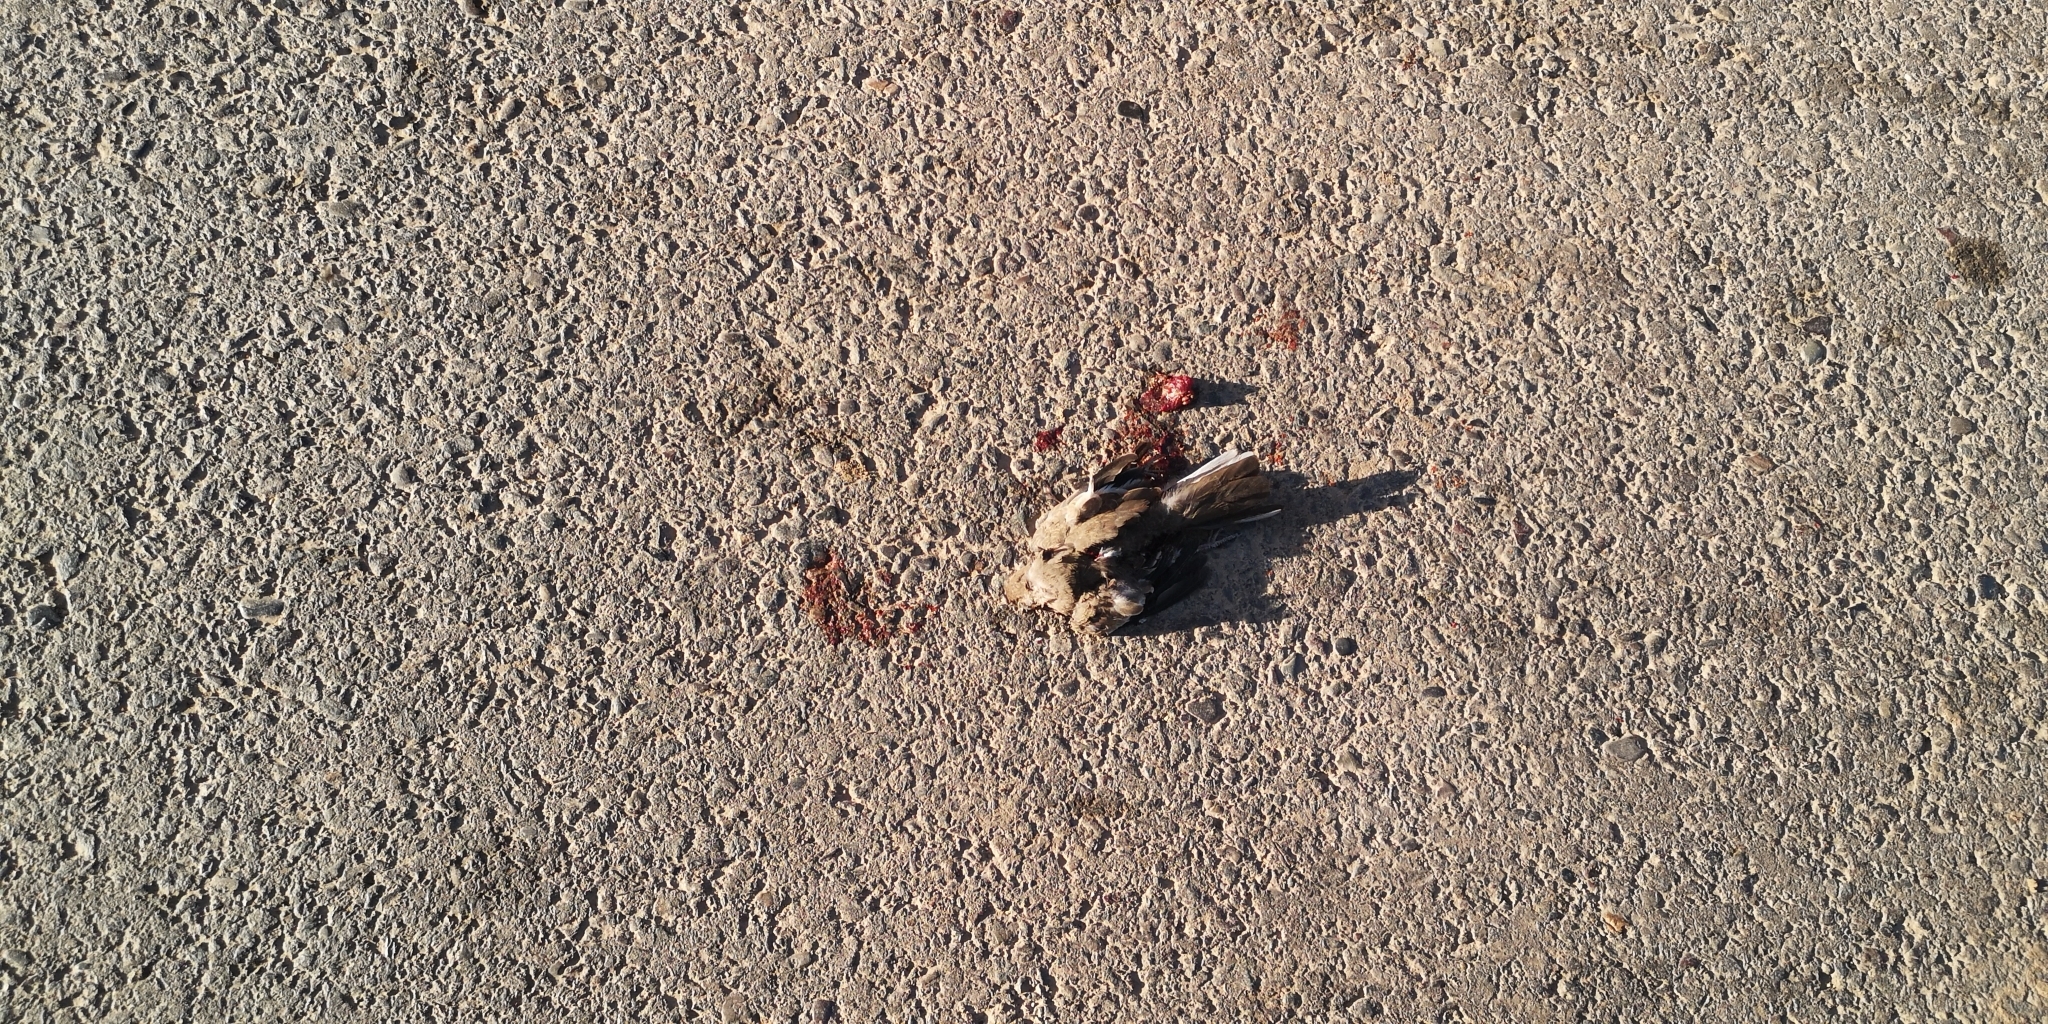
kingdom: Animalia
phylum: Chordata
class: Aves
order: Columbiformes
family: Columbidae
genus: Columbina
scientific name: Columbina picui
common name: Picui ground dove
